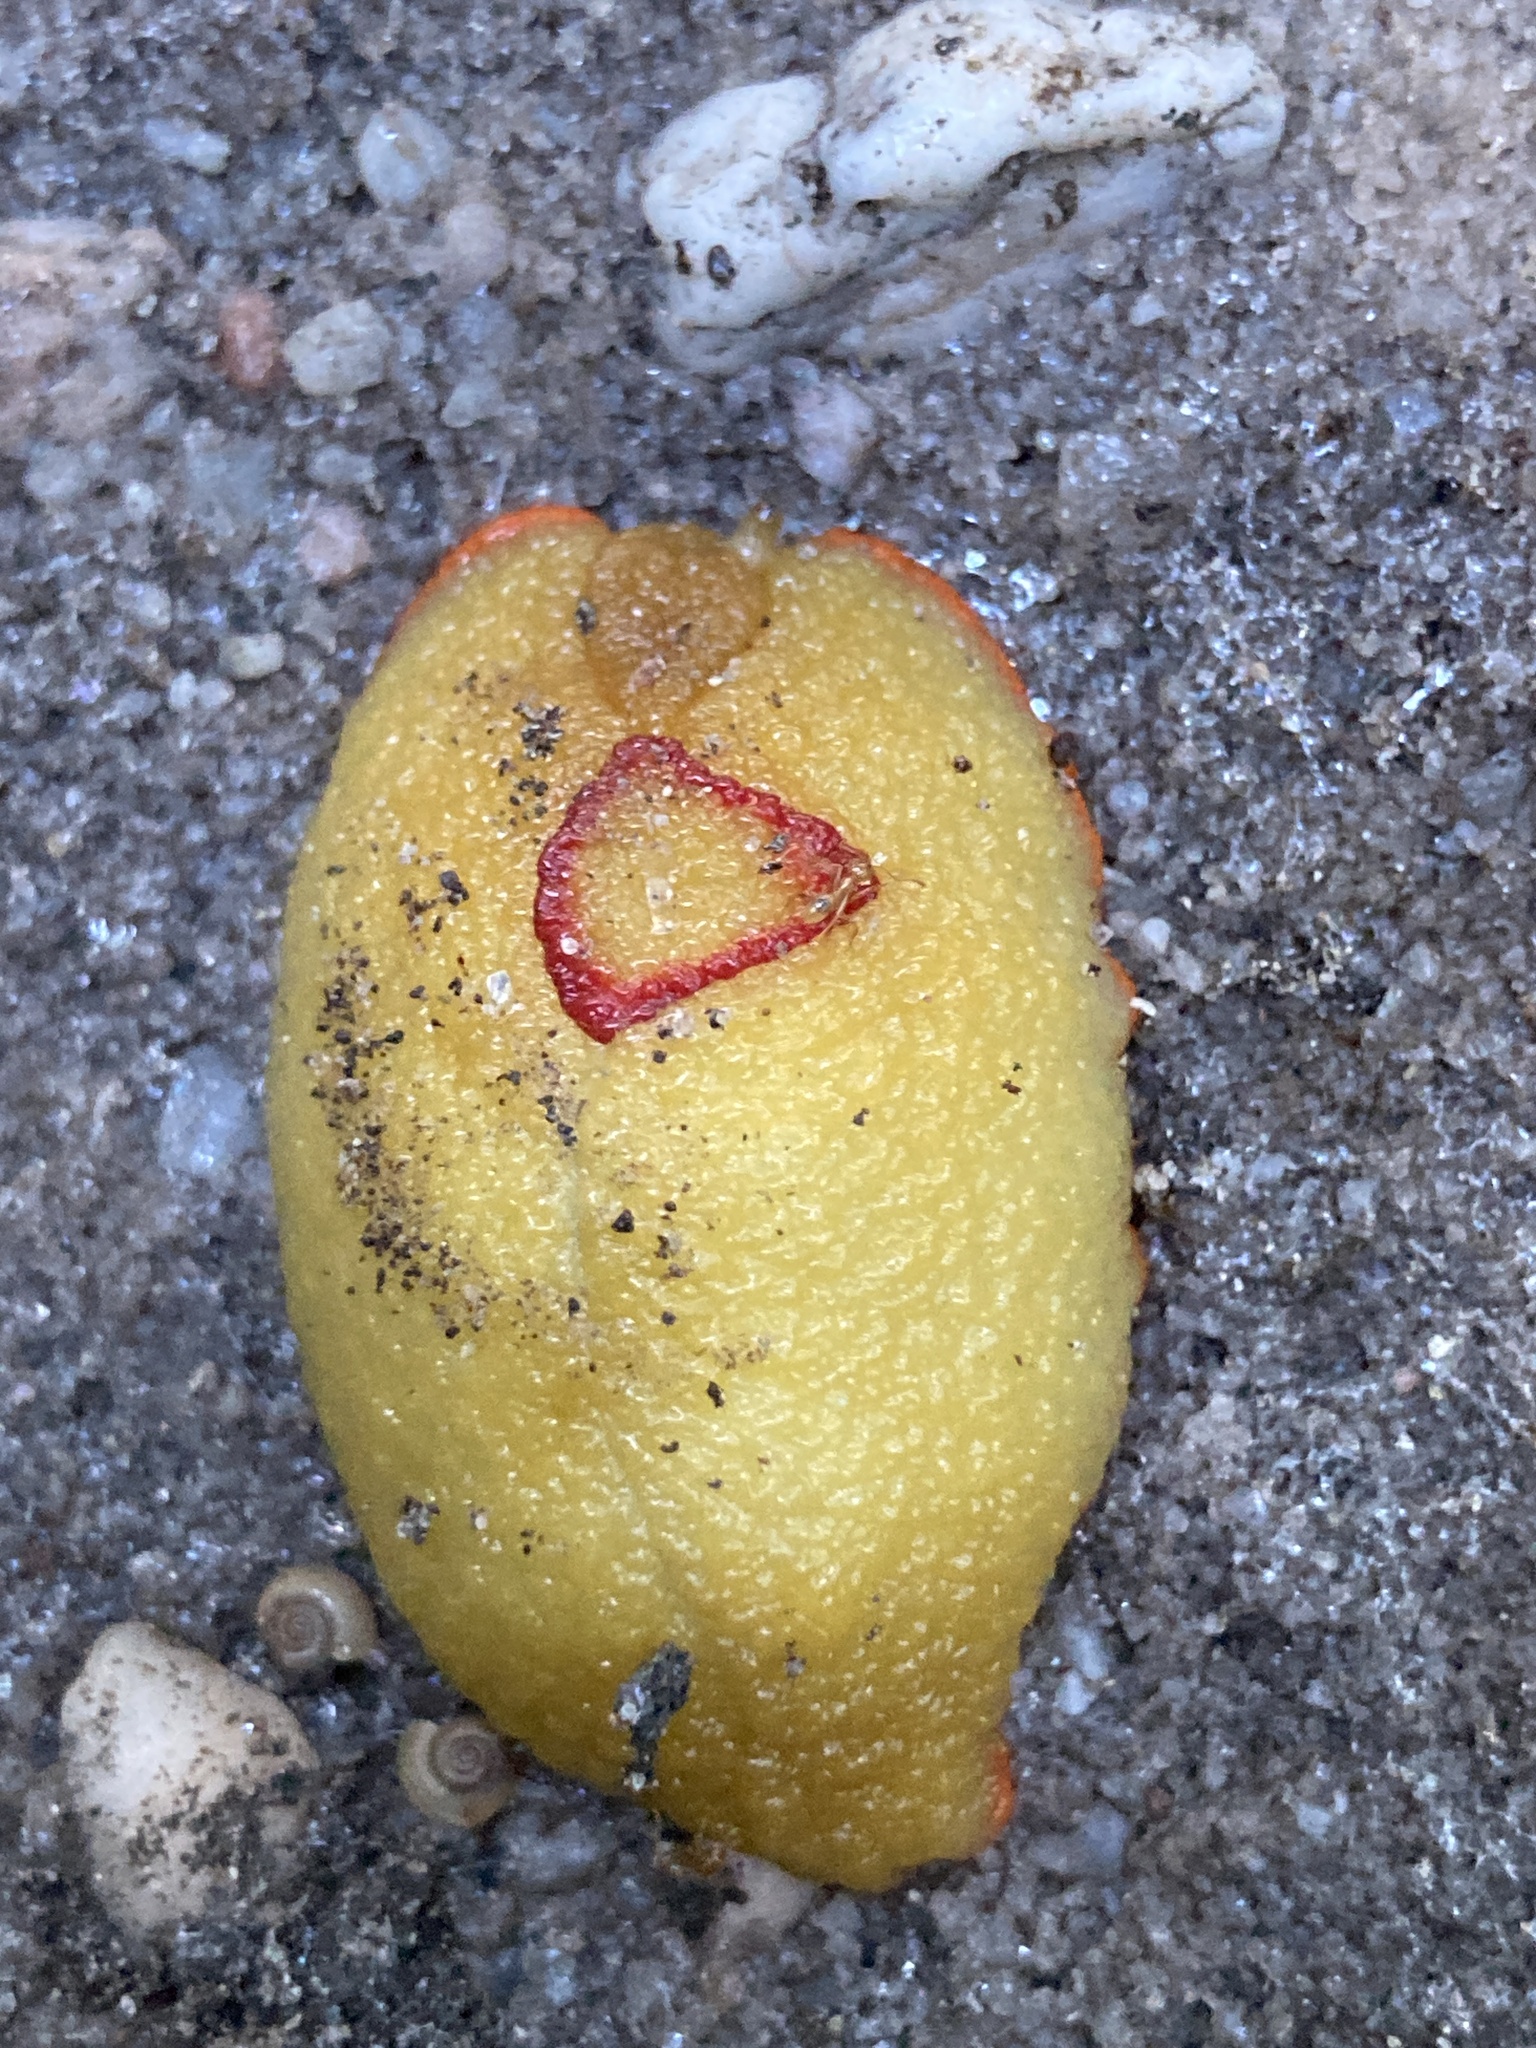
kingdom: Animalia
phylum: Mollusca
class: Gastropoda
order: Stylommatophora
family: Athoracophoridae
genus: Triboniophorus
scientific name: Triboniophorus graeffei
